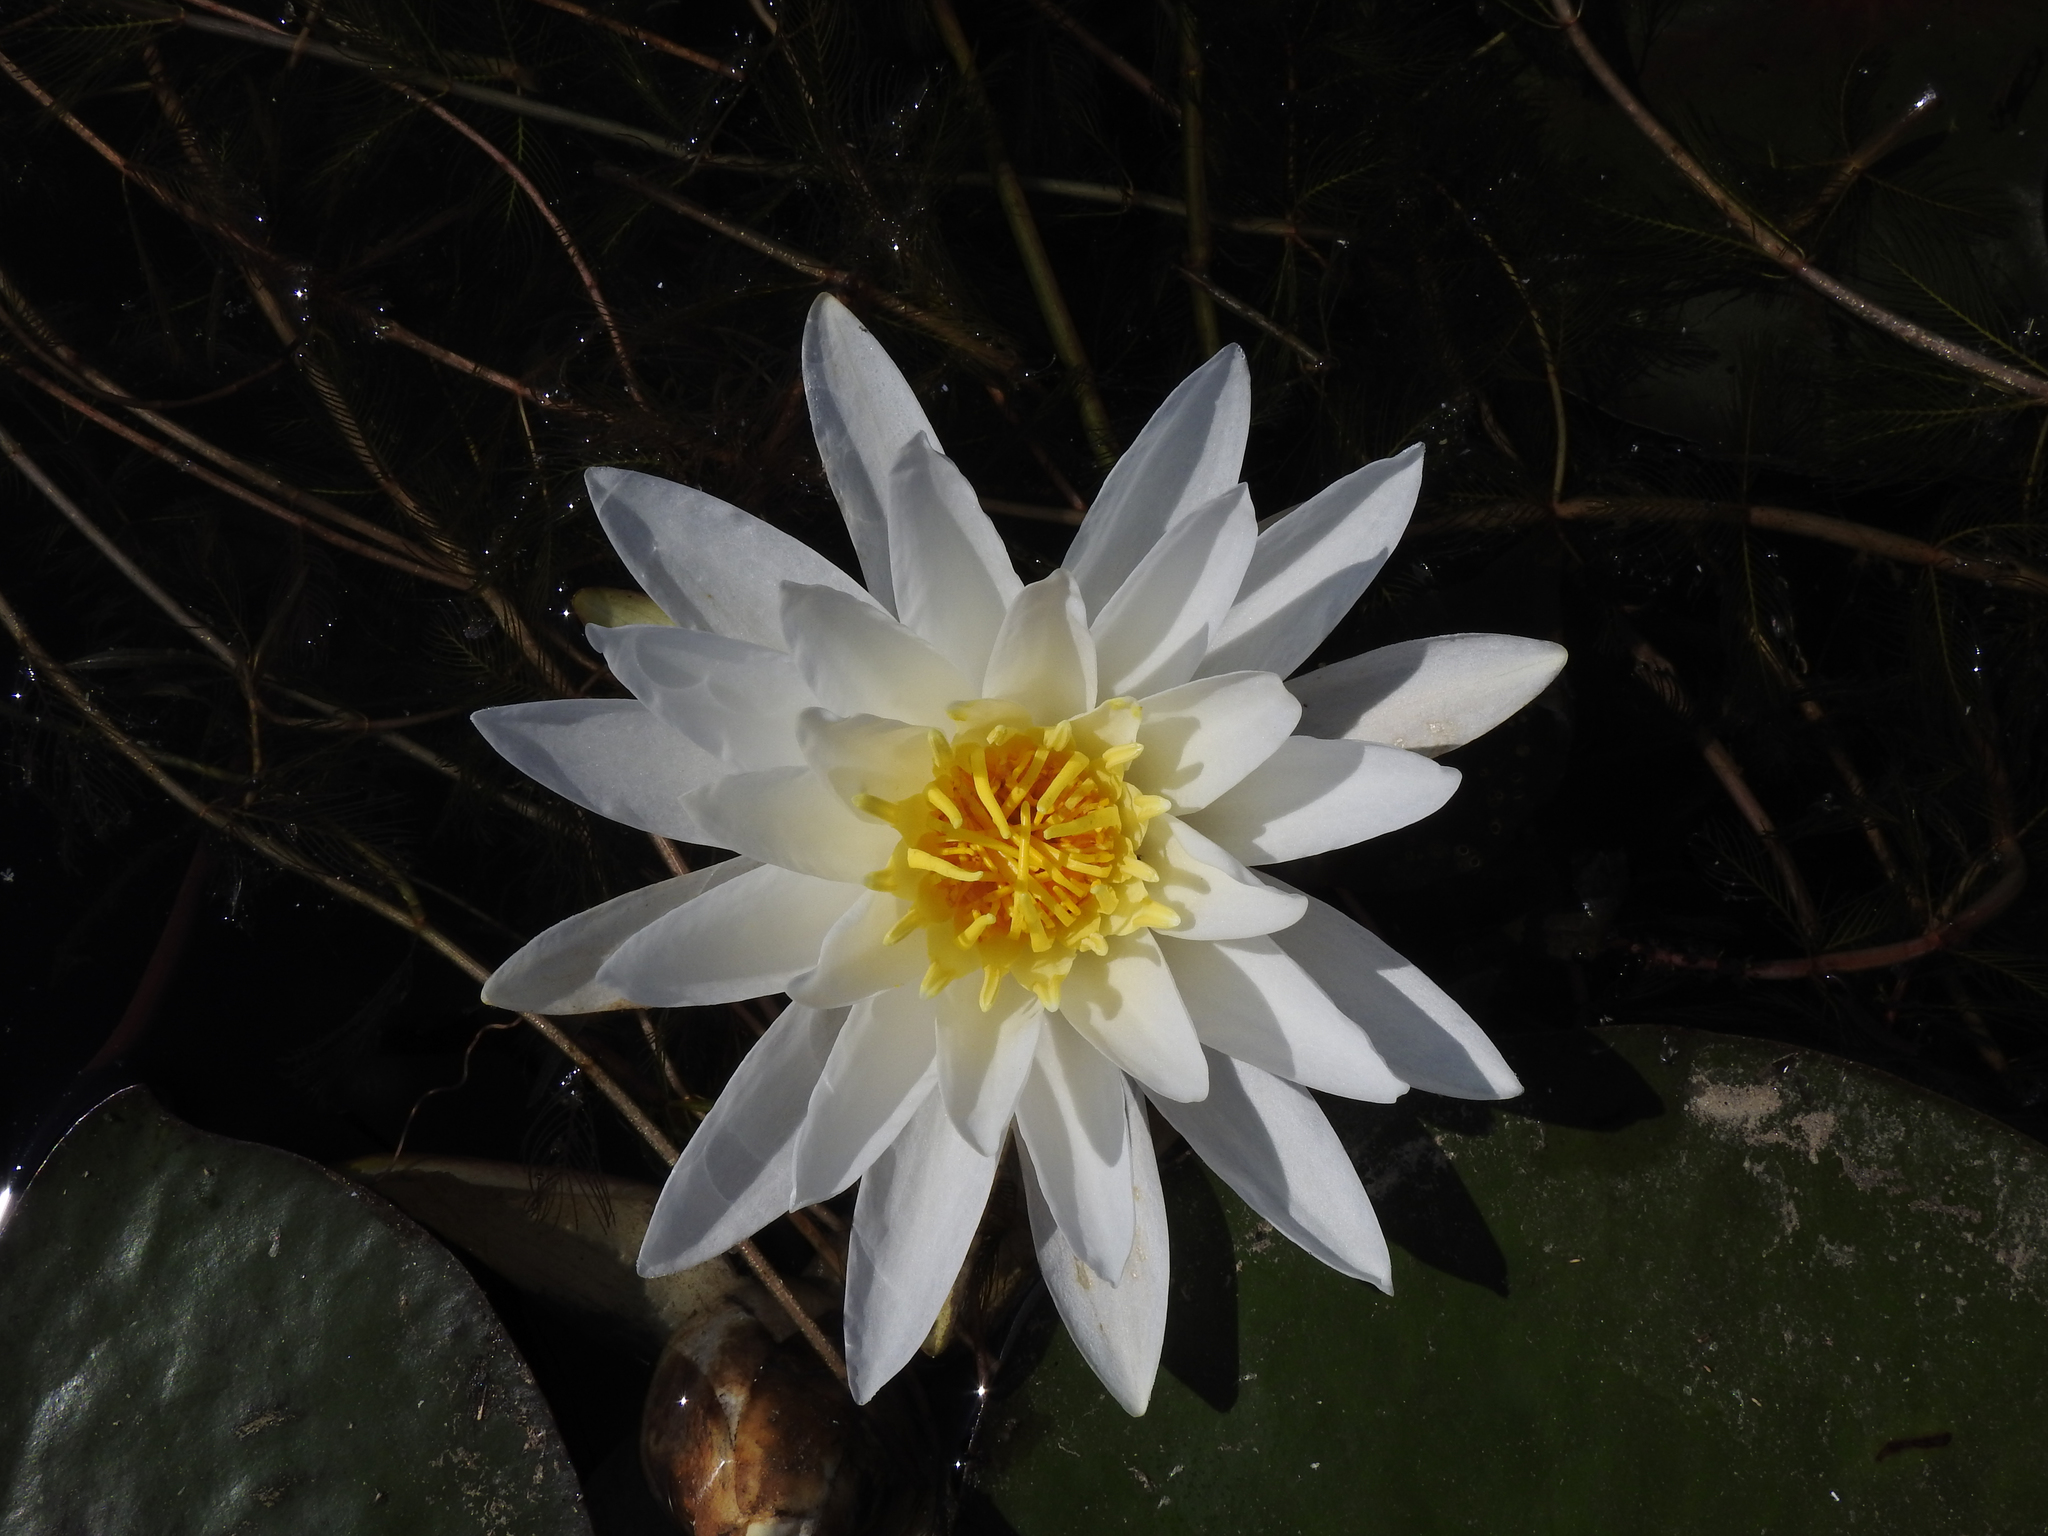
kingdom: Plantae
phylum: Tracheophyta
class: Magnoliopsida
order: Nymphaeales
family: Nymphaeaceae
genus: Nymphaea
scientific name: Nymphaea odorata
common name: Fragrant water-lily
